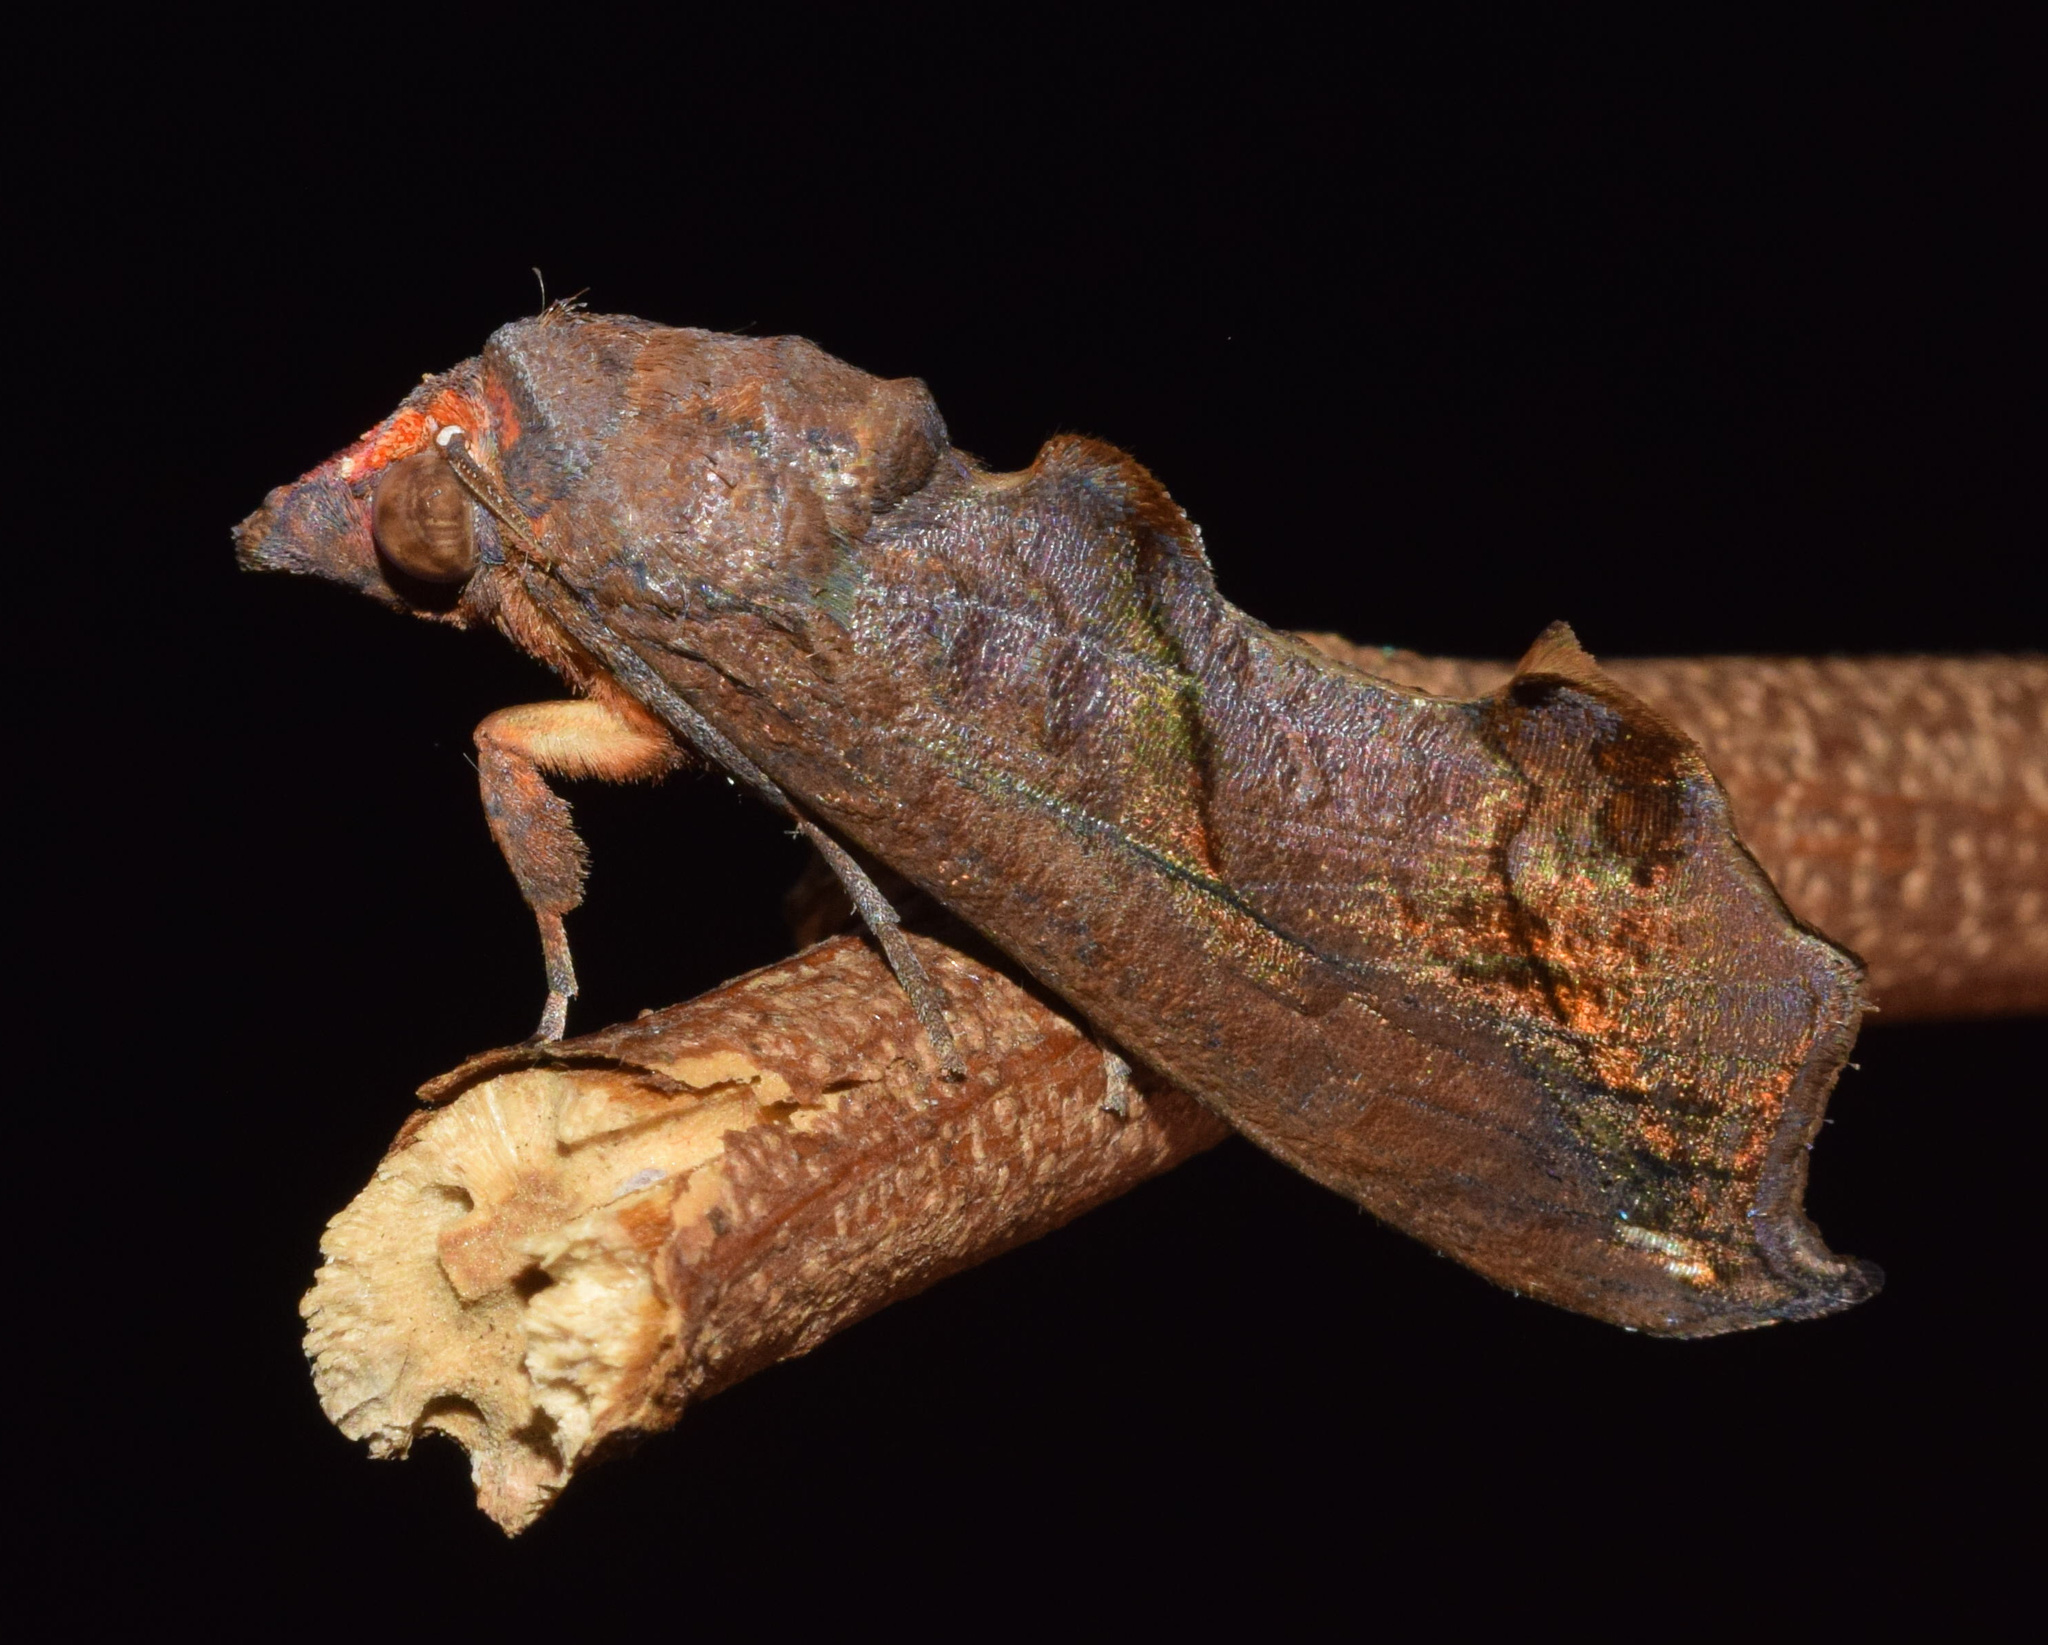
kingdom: Animalia
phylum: Arthropoda
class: Insecta
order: Lepidoptera
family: Erebidae
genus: Oraesia
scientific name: Oraesia provocans
